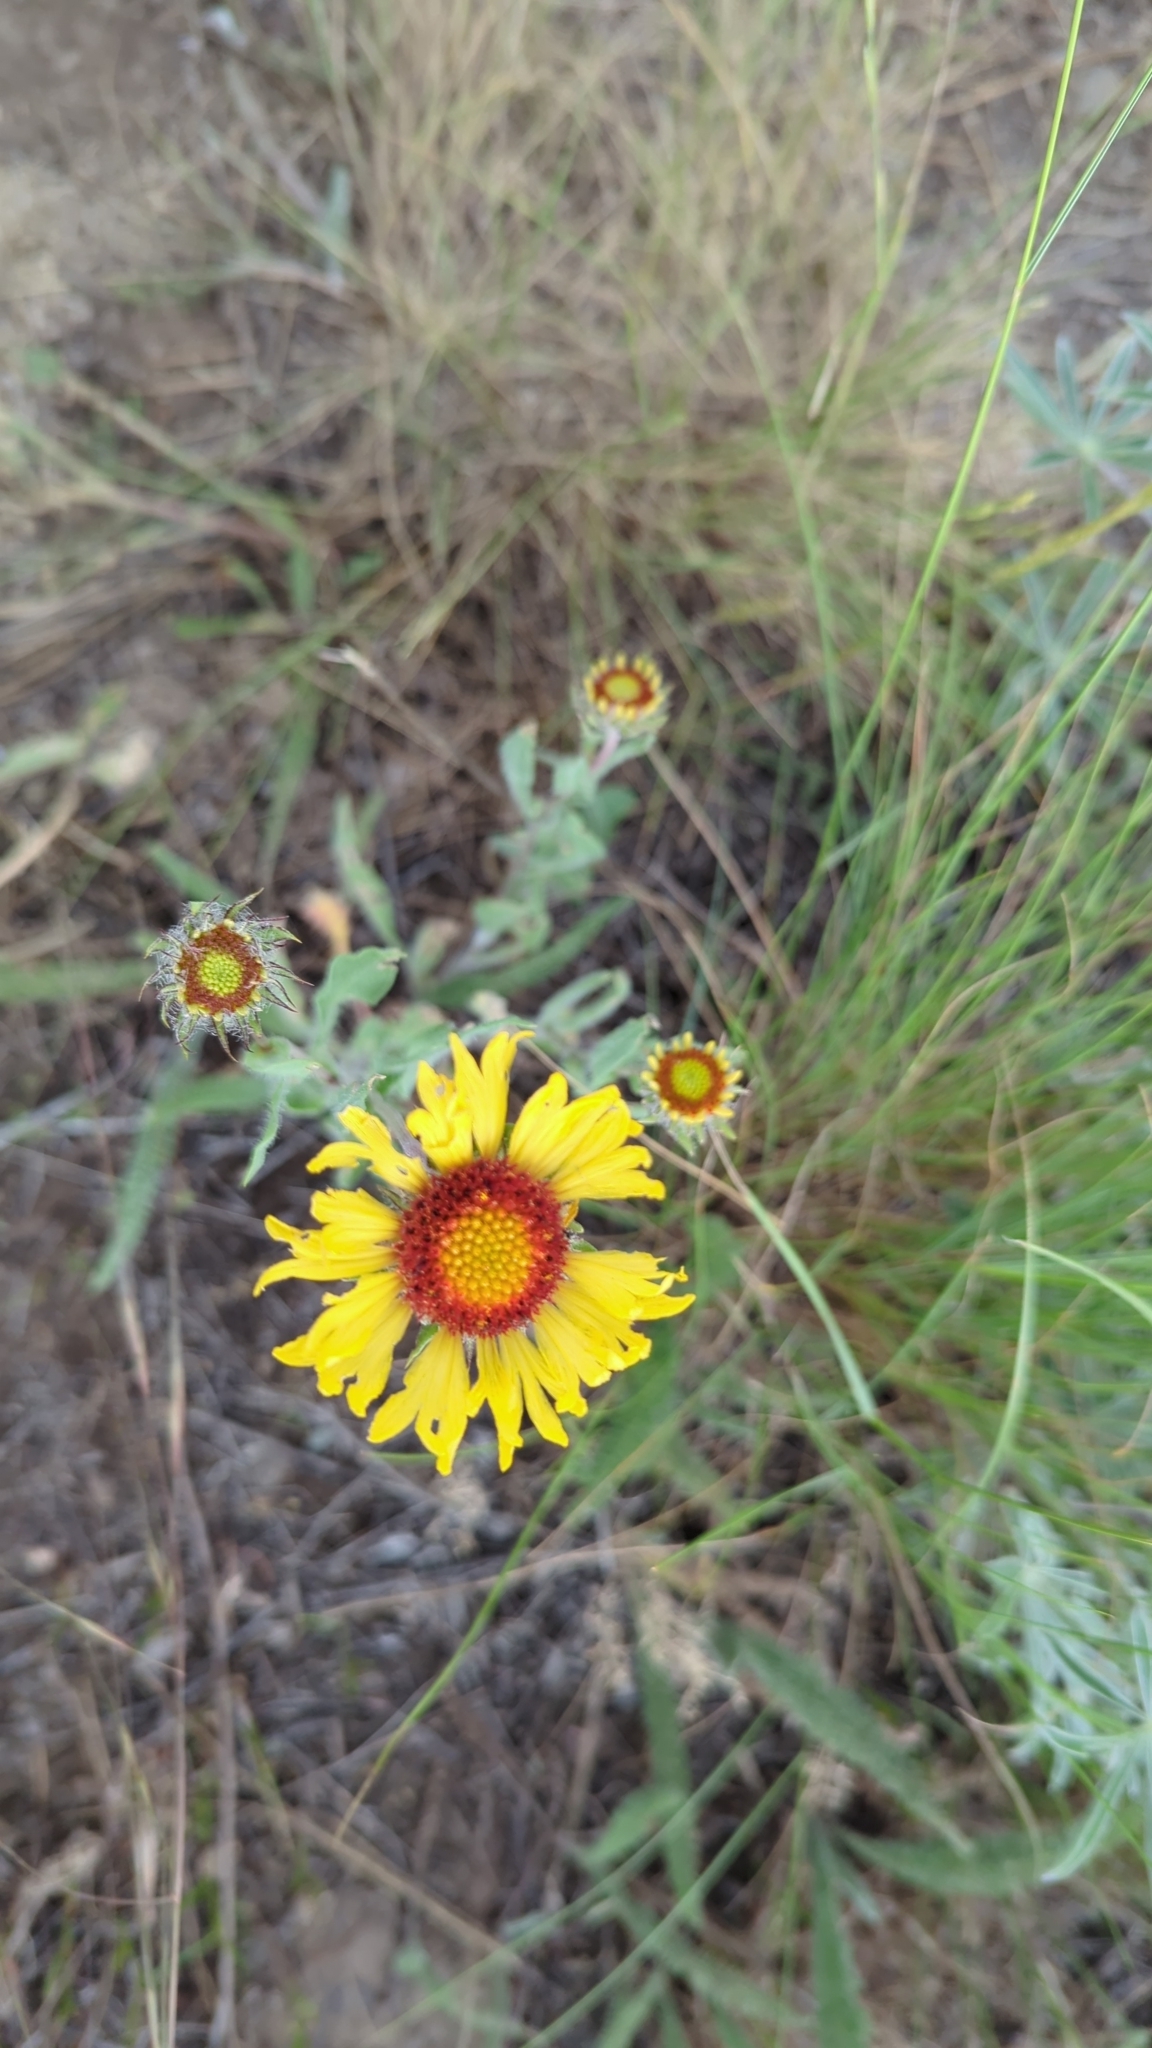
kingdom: Plantae
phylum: Tracheophyta
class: Magnoliopsida
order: Asterales
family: Asteraceae
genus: Gaillardia
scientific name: Gaillardia aristata
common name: Blanket-flower
